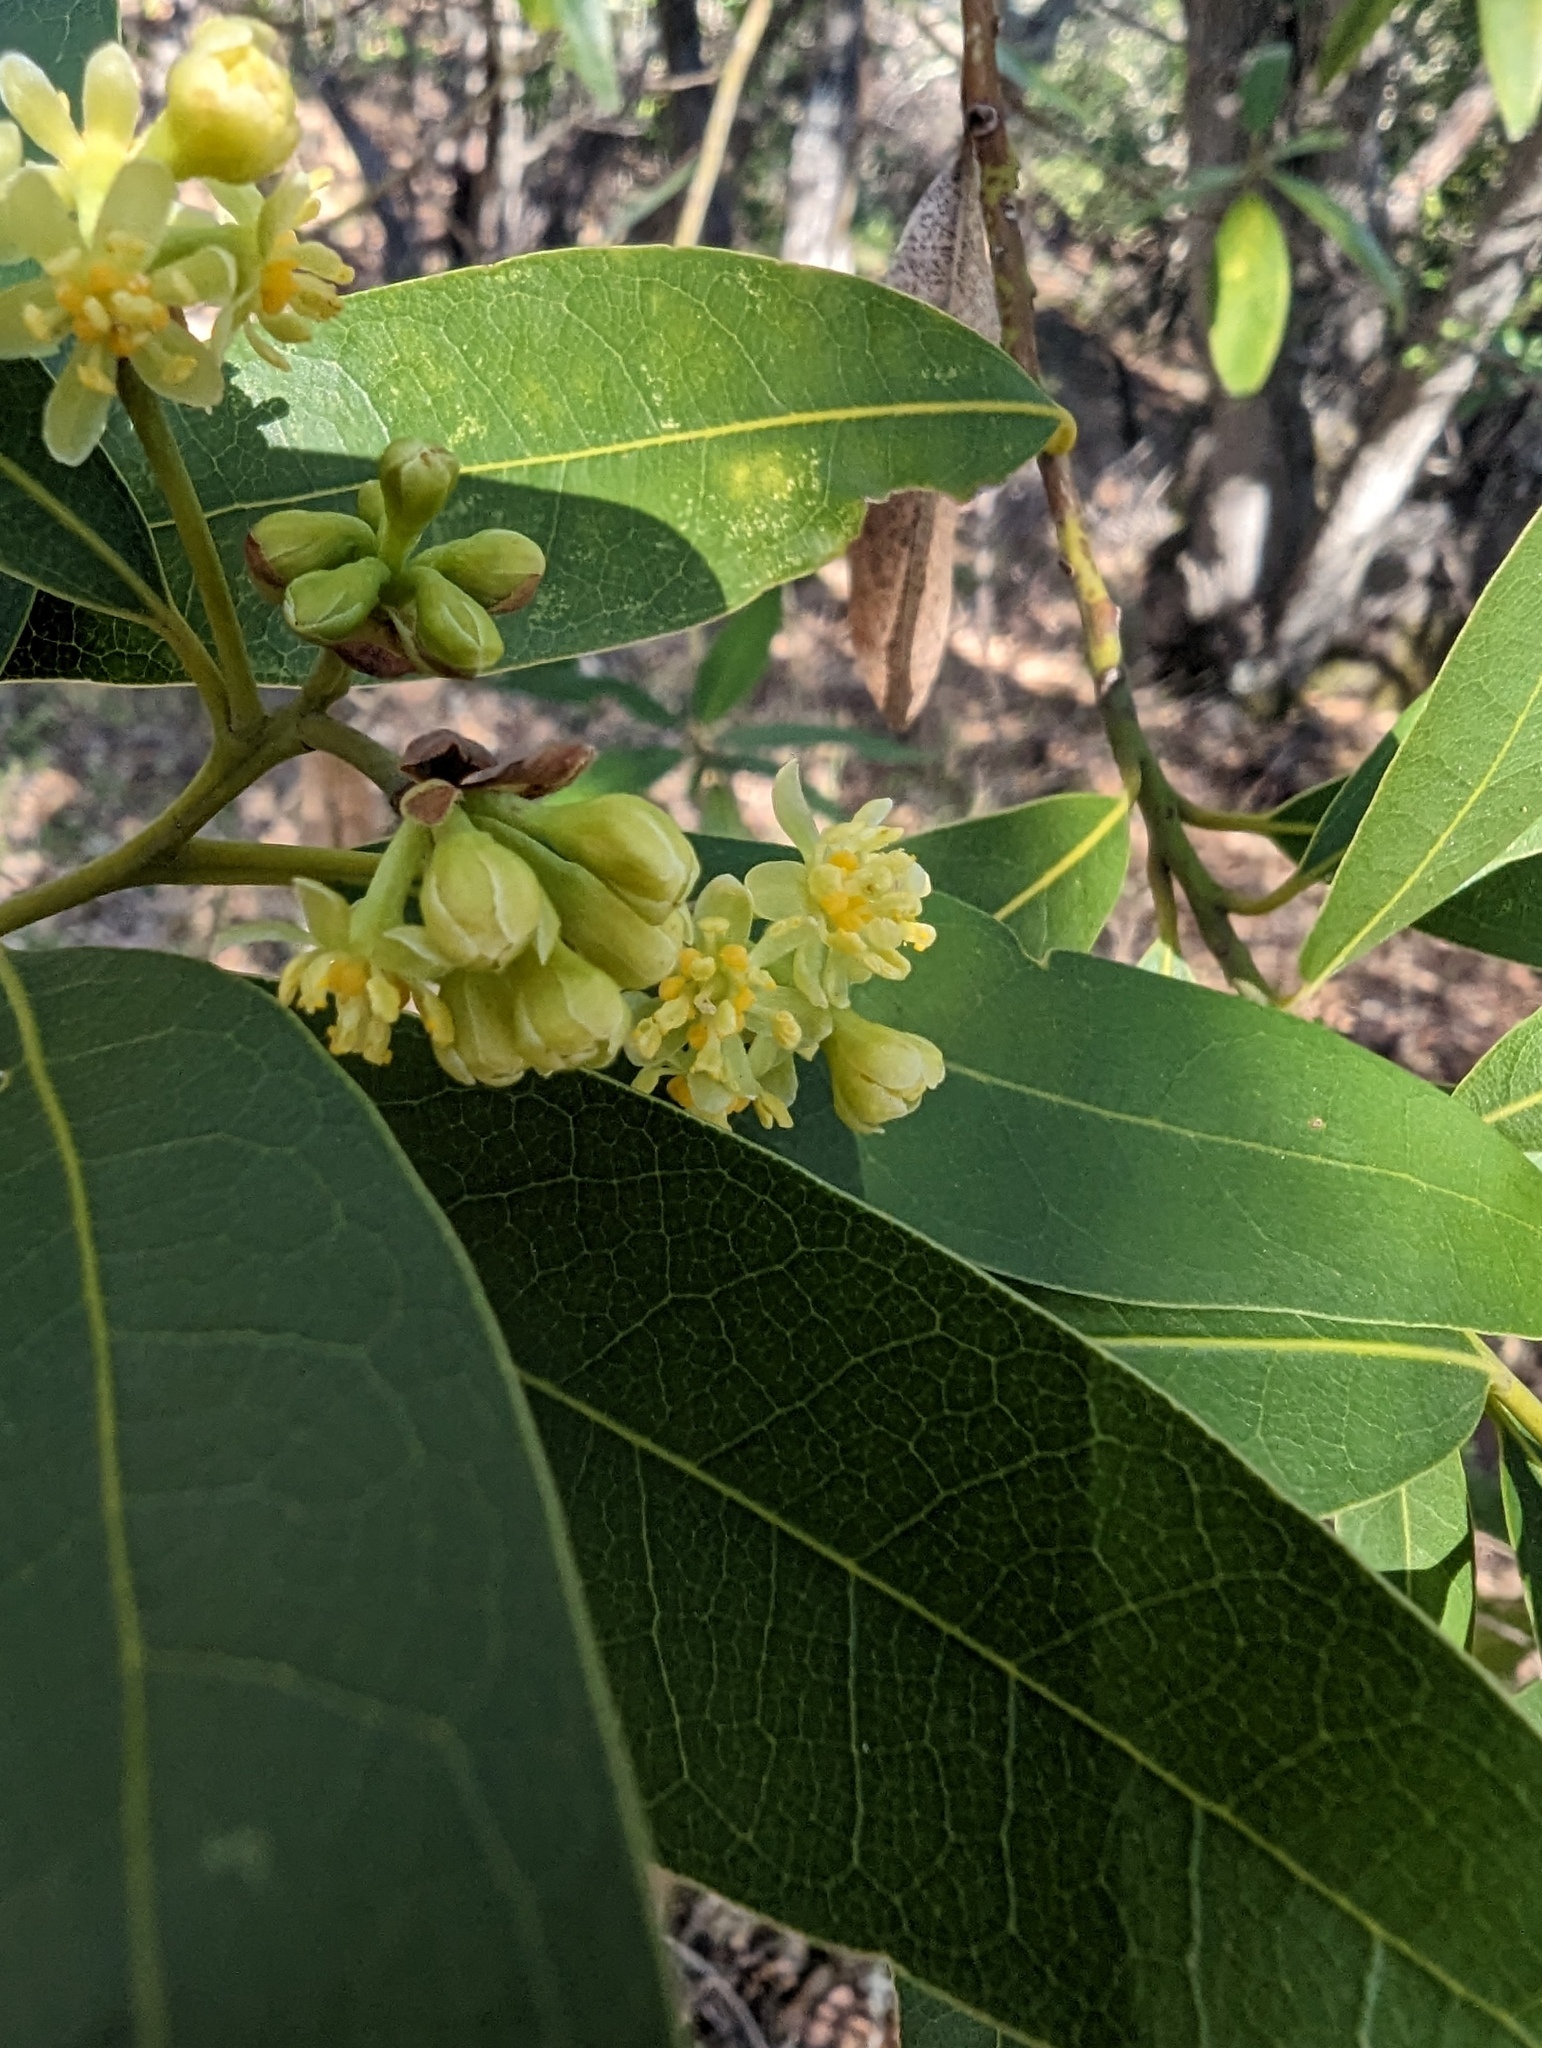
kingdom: Plantae
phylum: Tracheophyta
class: Magnoliopsida
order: Laurales
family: Lauraceae
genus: Umbellularia
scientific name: Umbellularia californica
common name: California bay
